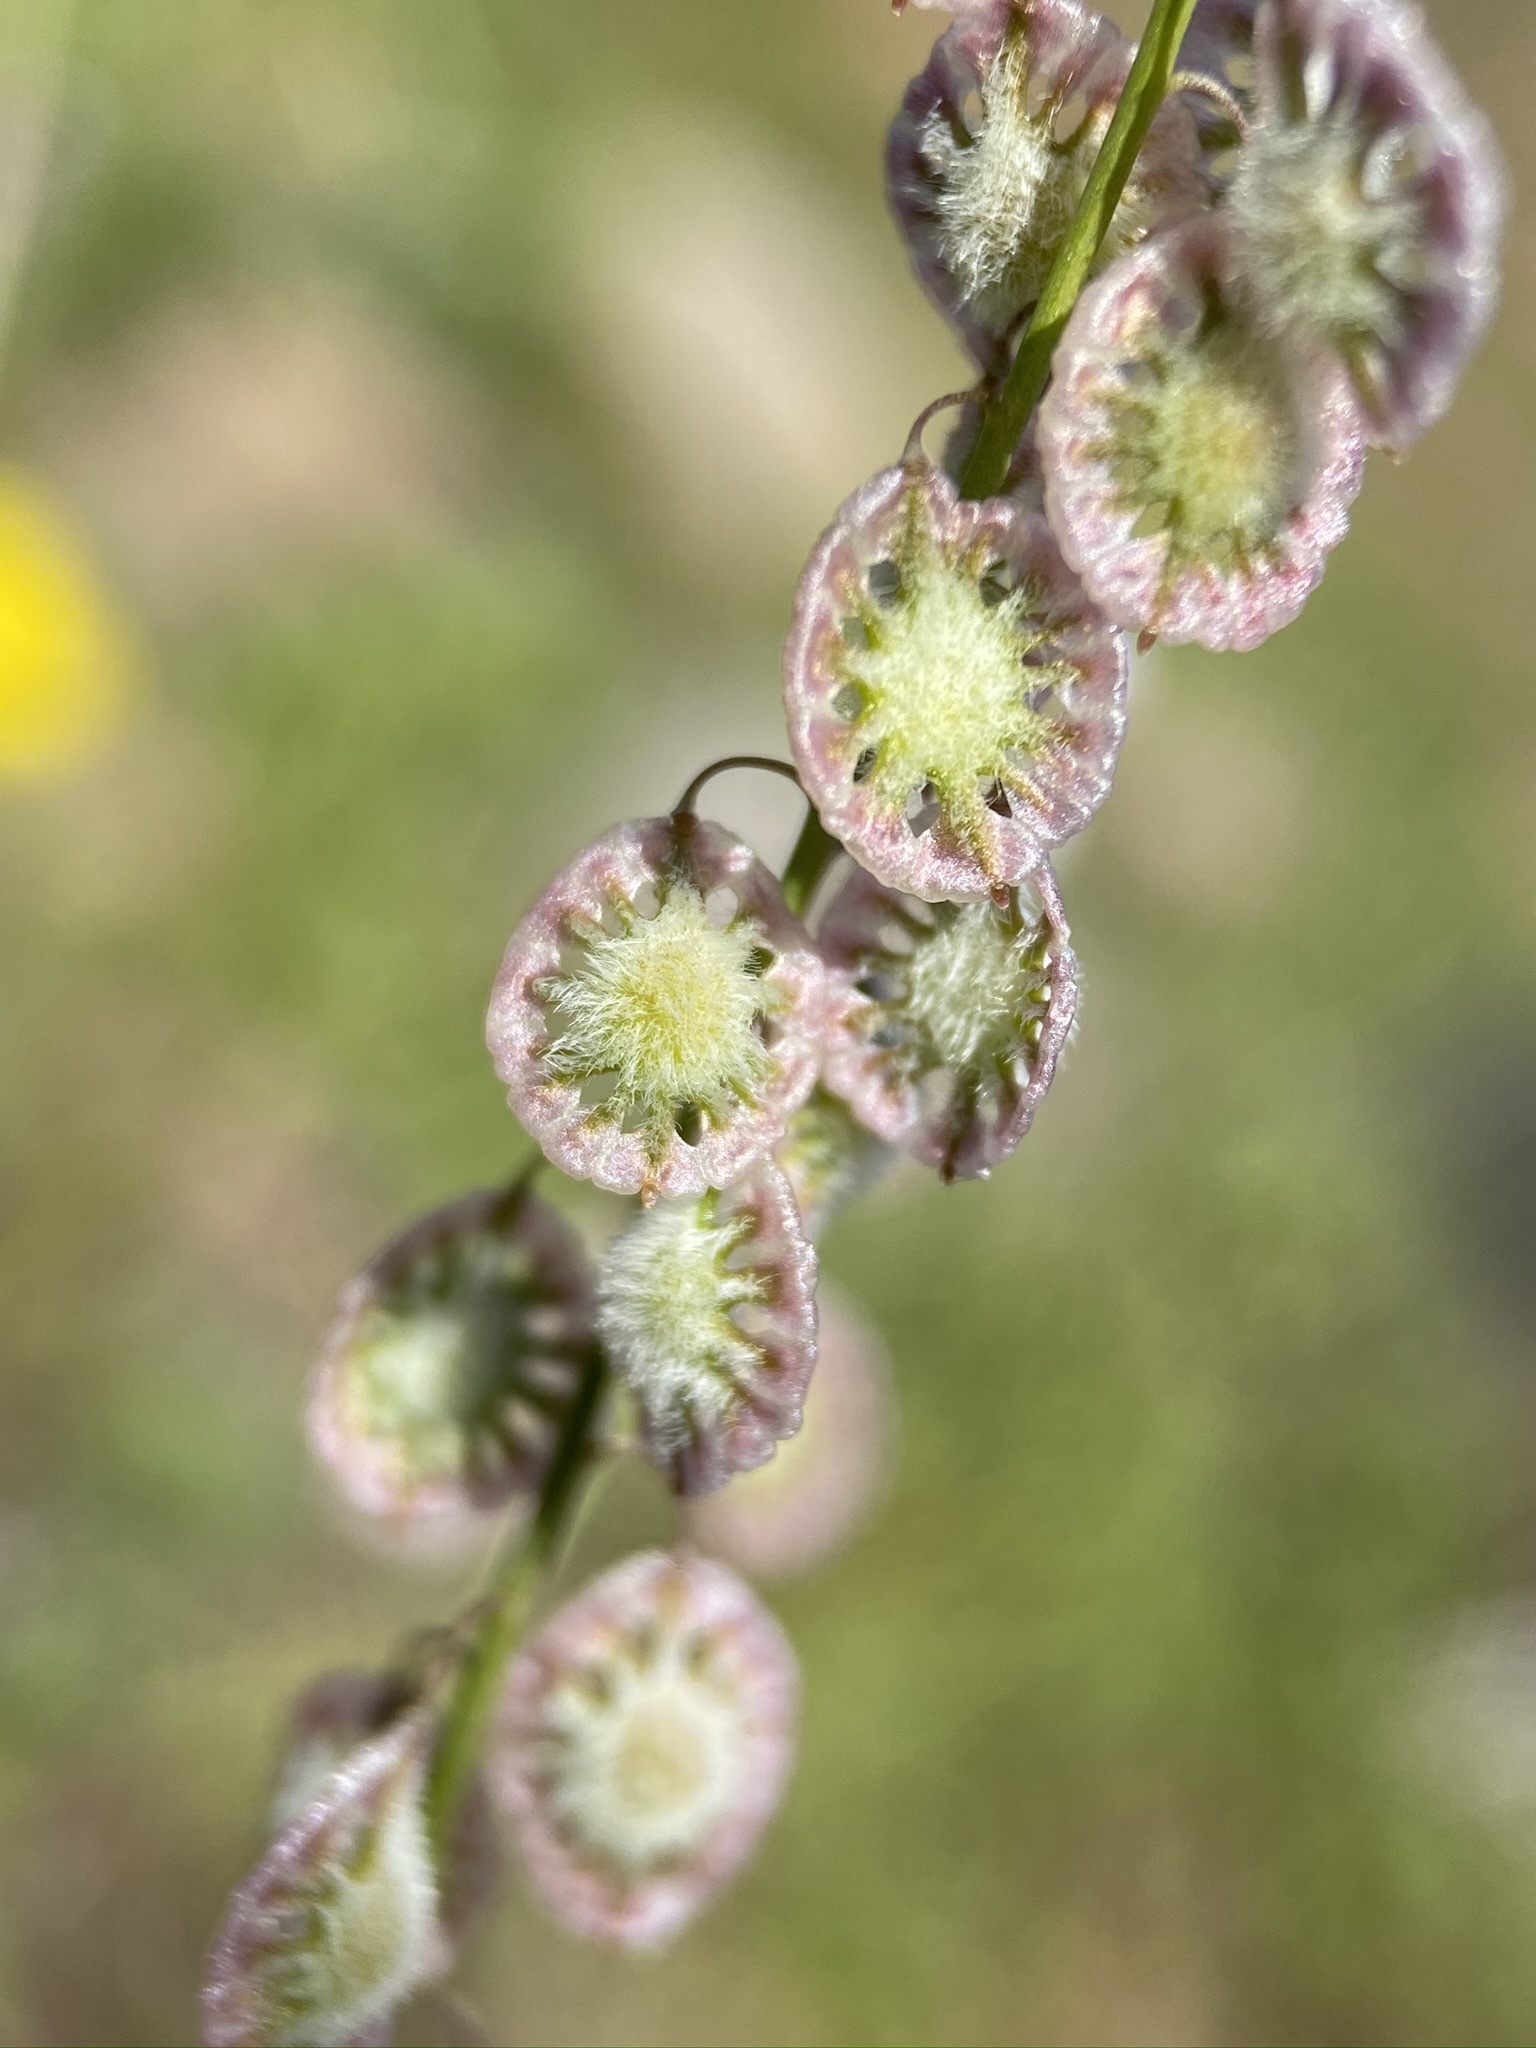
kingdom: Plantae
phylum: Tracheophyta
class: Magnoliopsida
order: Brassicales
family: Brassicaceae
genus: Thysanocarpus
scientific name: Thysanocarpus curvipes
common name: Sand fringepod
